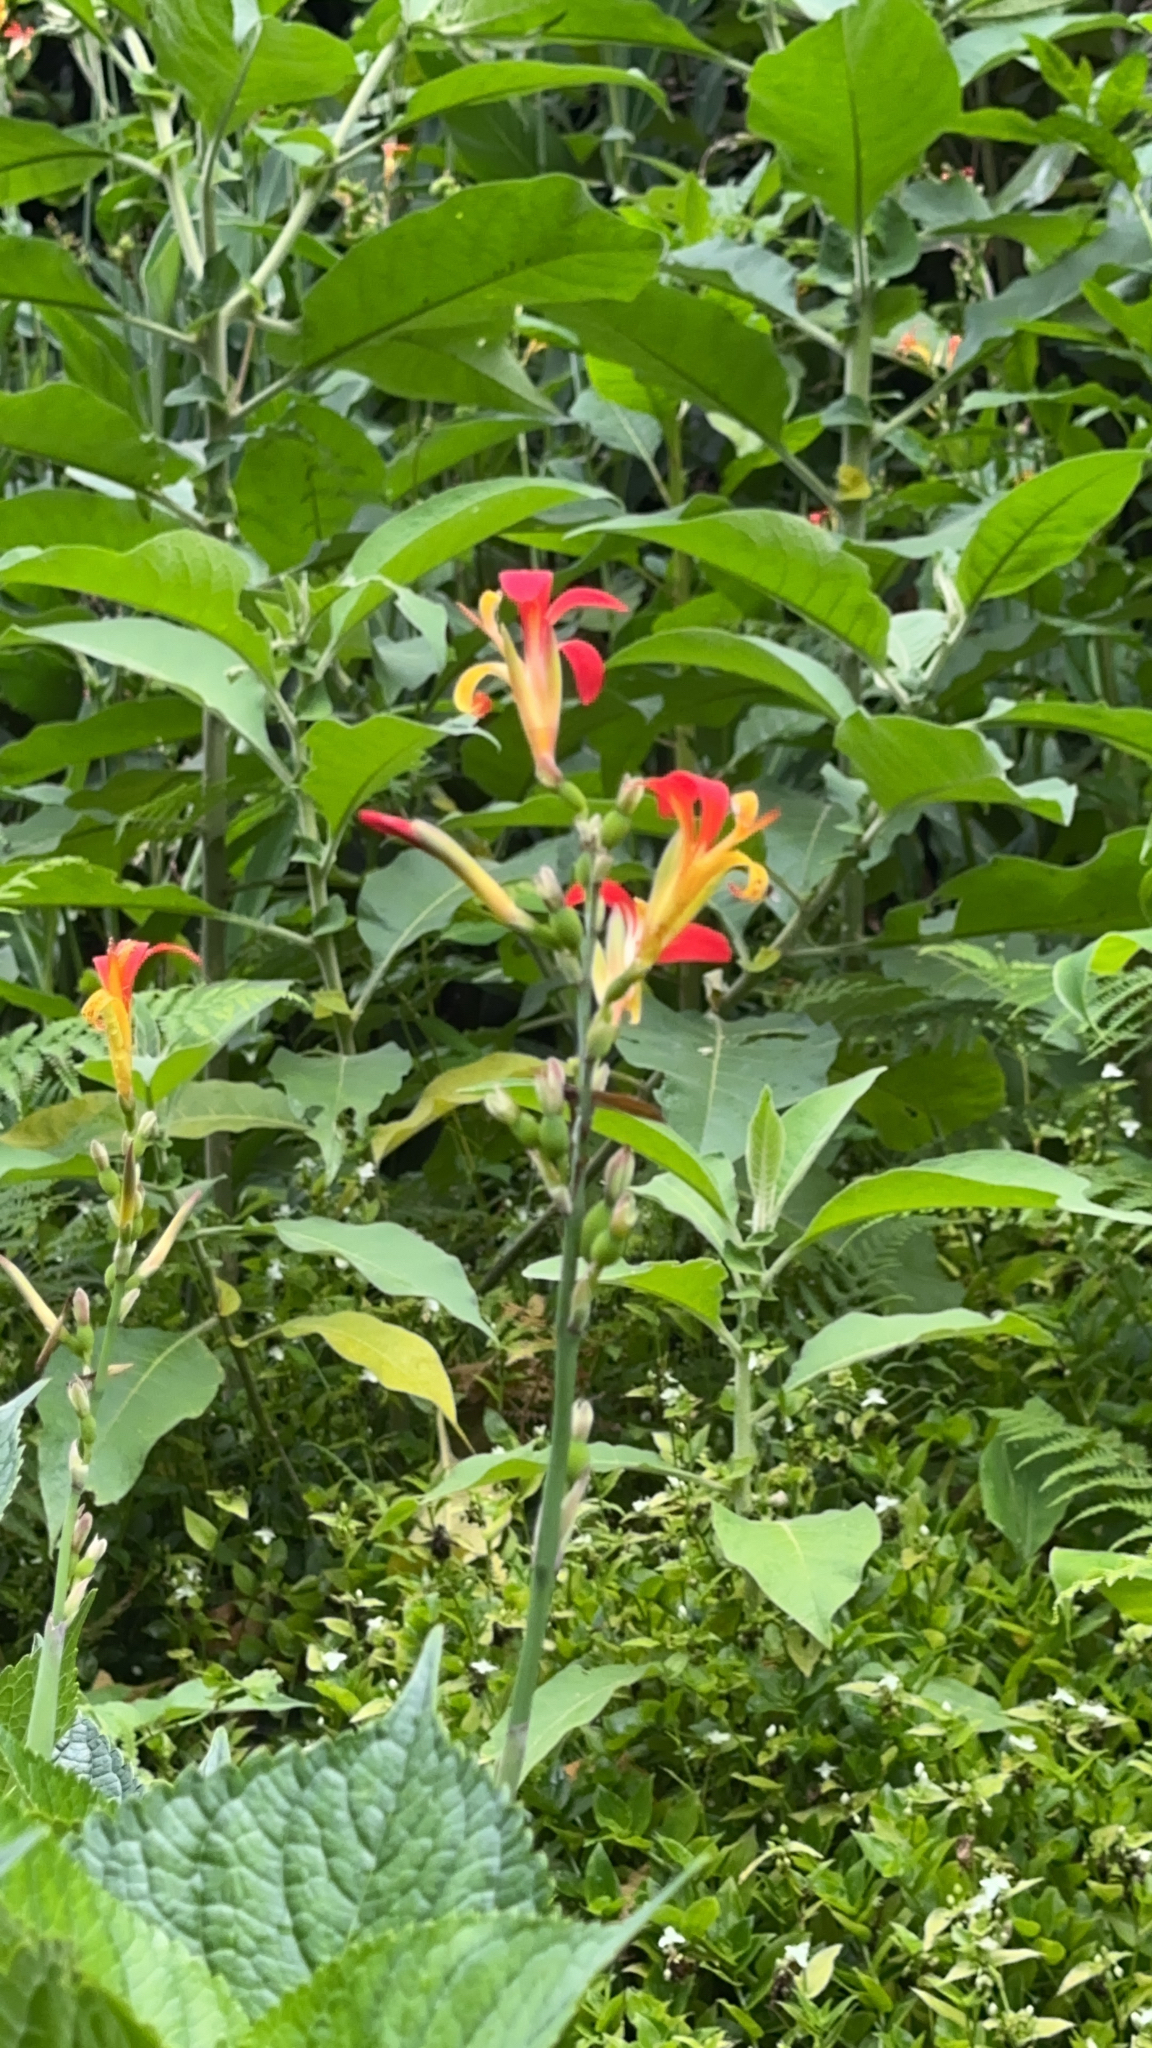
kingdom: Plantae
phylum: Tracheophyta
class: Liliopsida
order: Zingiberales
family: Cannaceae
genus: Canna
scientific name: Canna indica
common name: Indian shot
